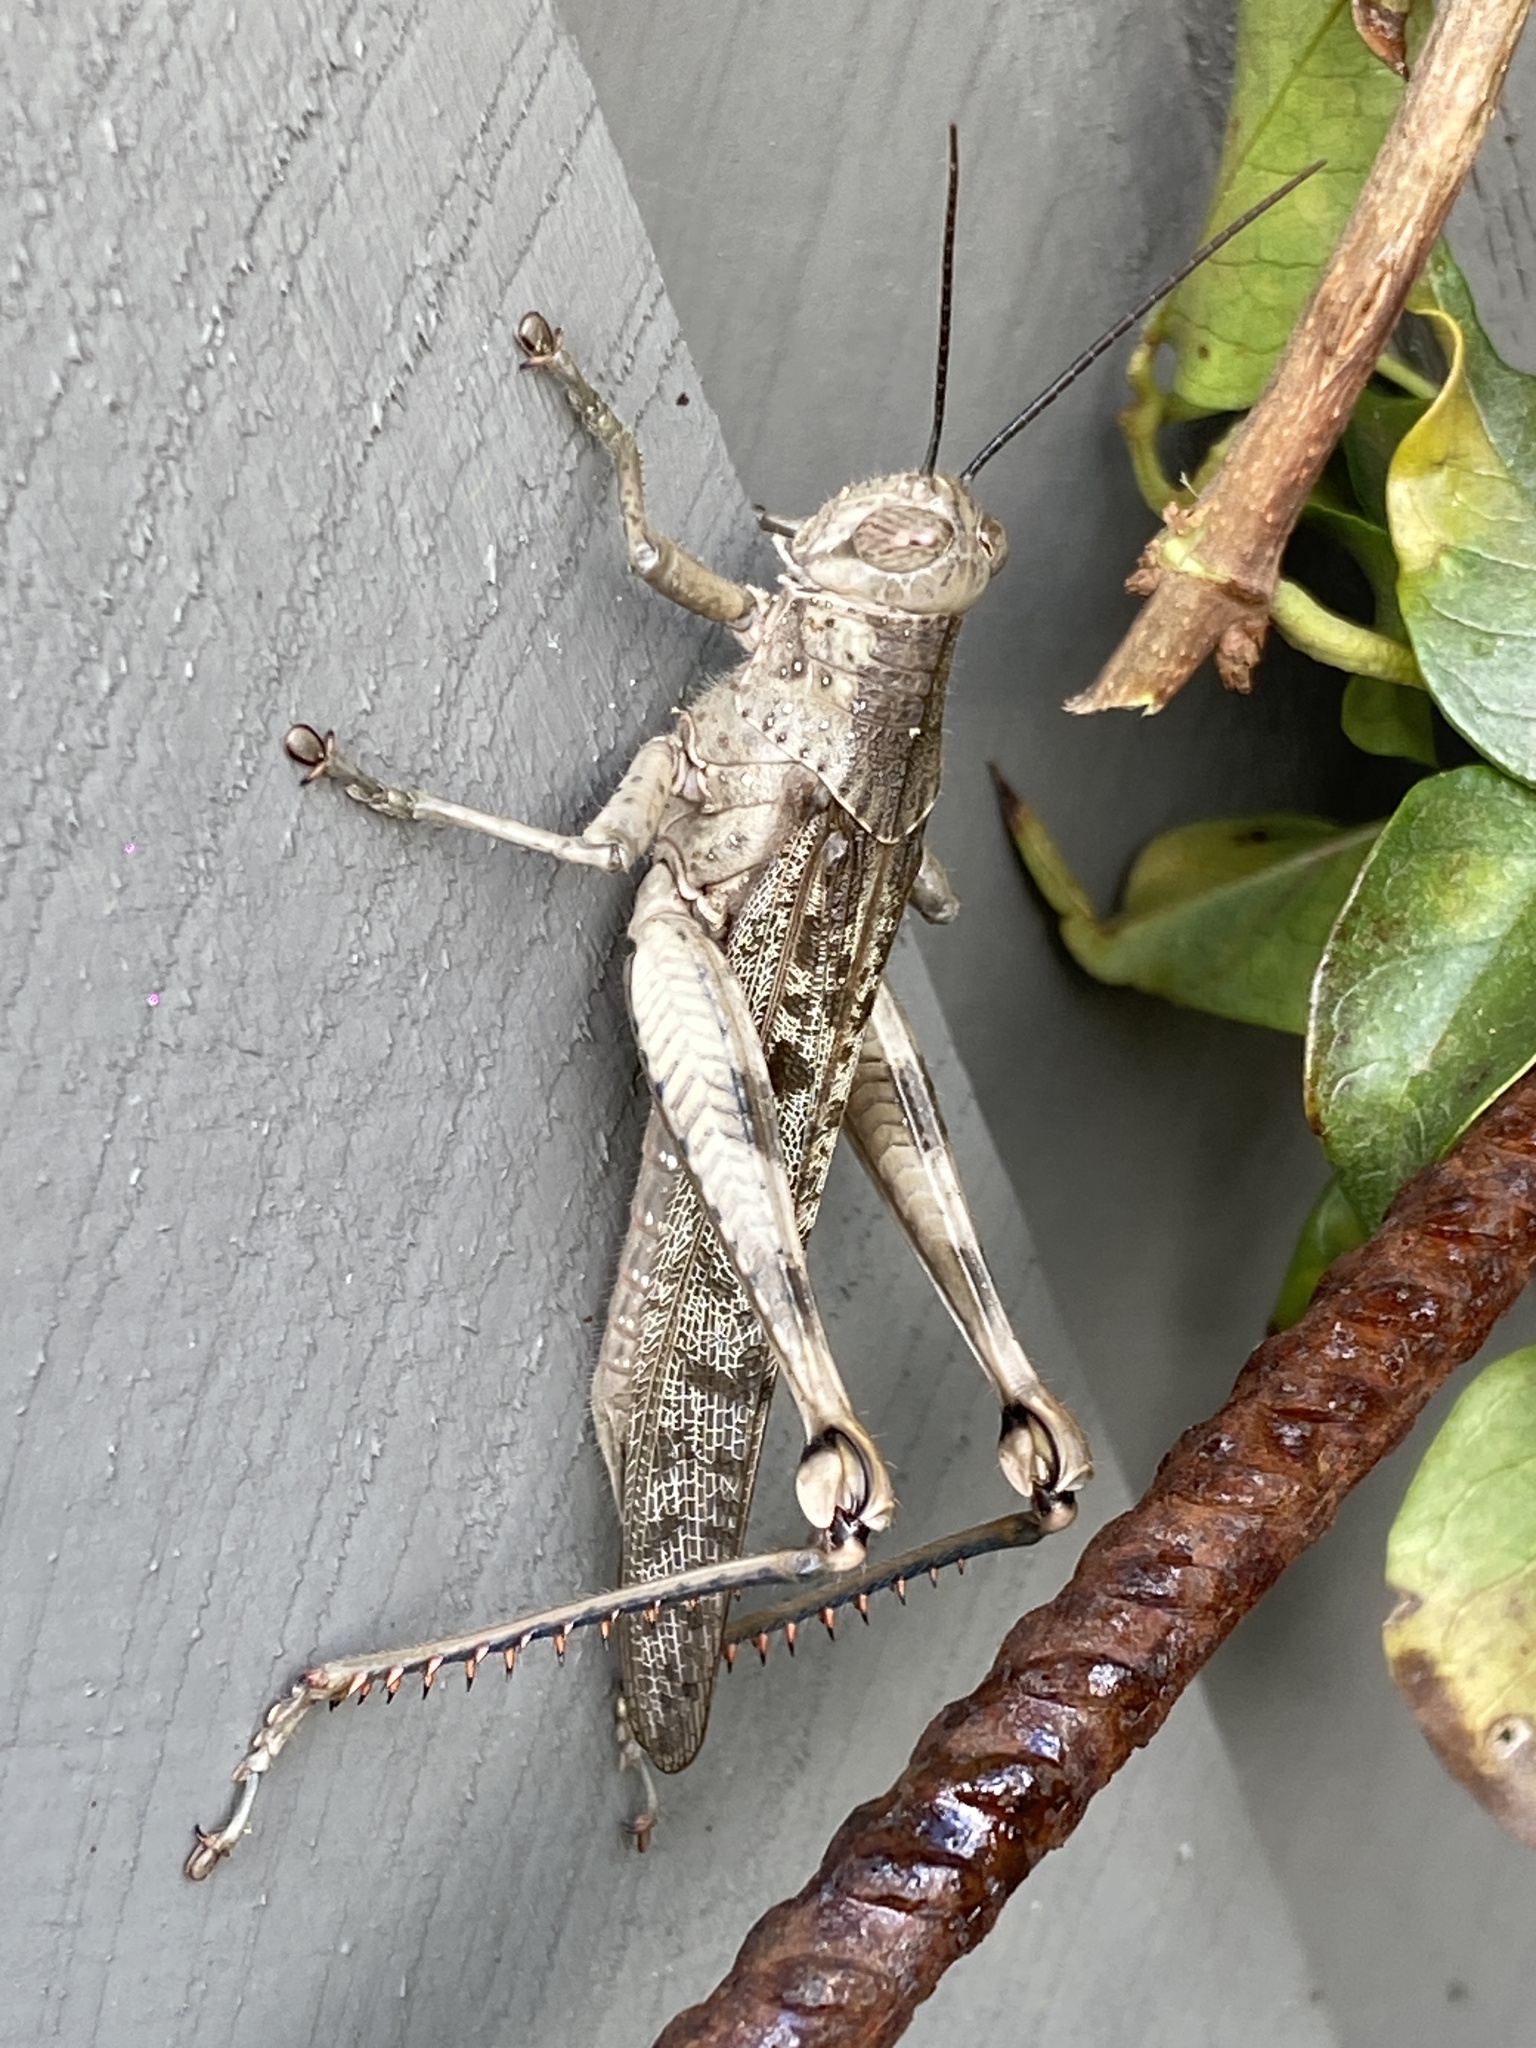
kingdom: Animalia
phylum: Arthropoda
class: Insecta
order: Orthoptera
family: Acrididae
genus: Valanga
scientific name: Valanga irregularis
